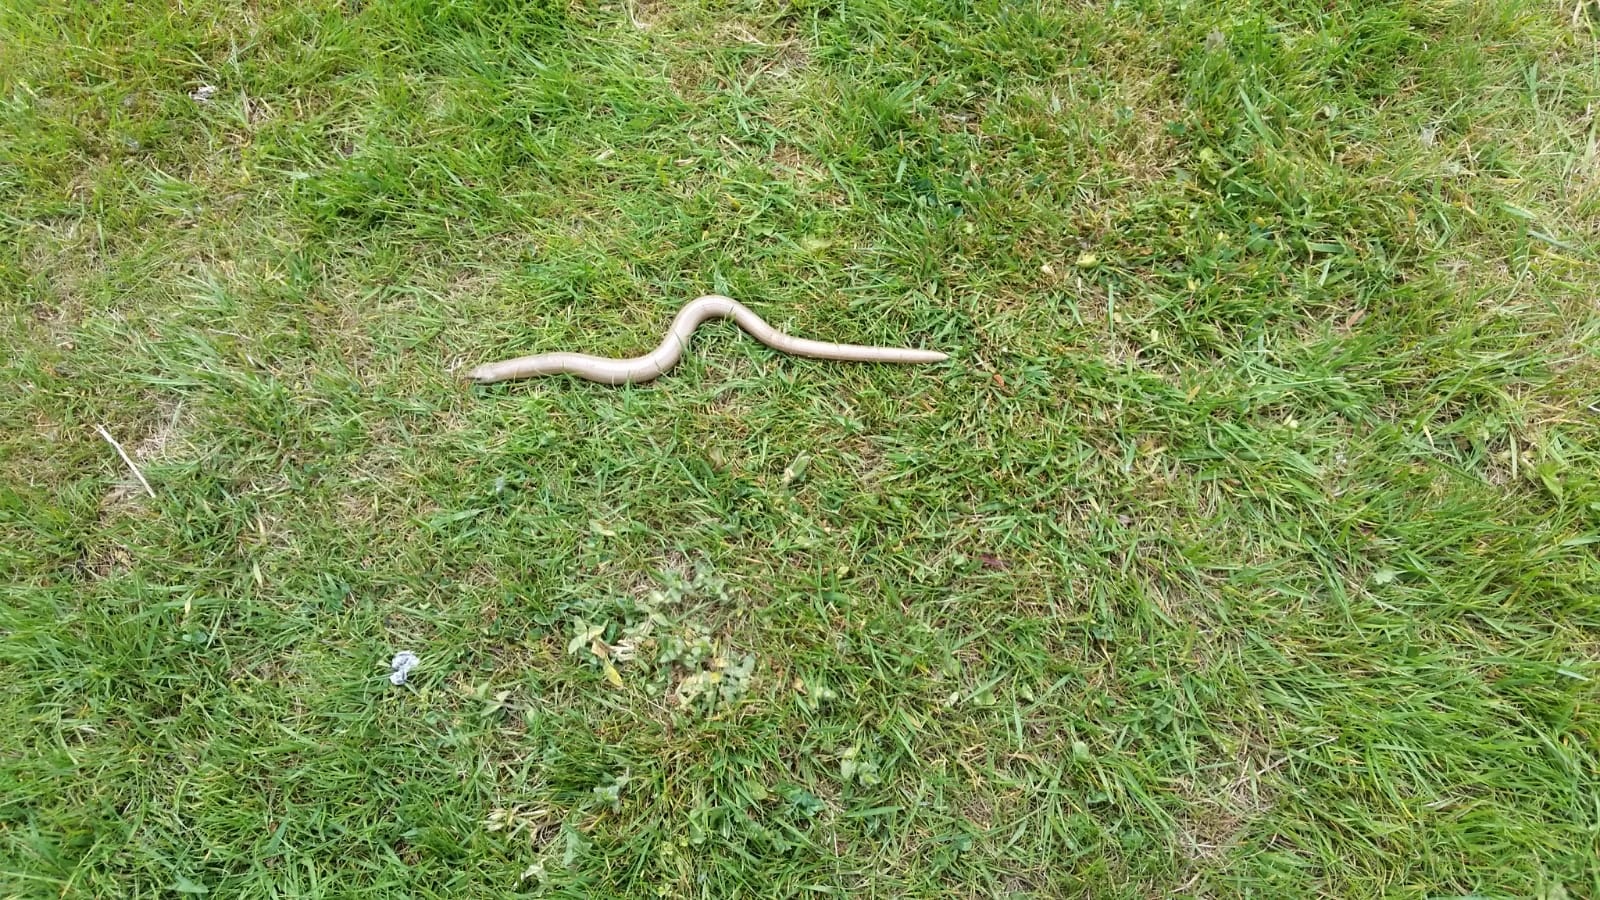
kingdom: Animalia
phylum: Chordata
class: Squamata
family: Anguidae
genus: Anguis
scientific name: Anguis fragilis
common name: Slow worm
